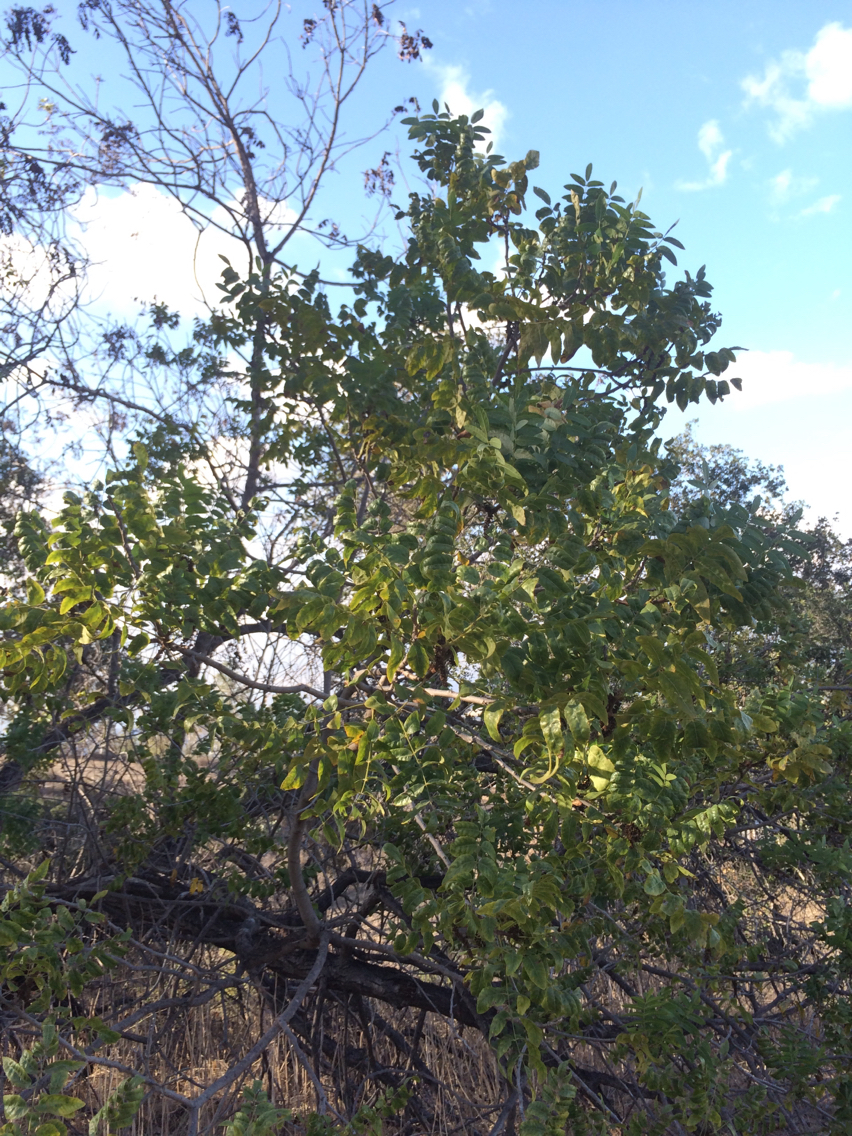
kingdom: Plantae
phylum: Tracheophyta
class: Magnoliopsida
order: Fagales
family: Juglandaceae
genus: Juglans
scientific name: Juglans californica
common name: Southern california black walnut
